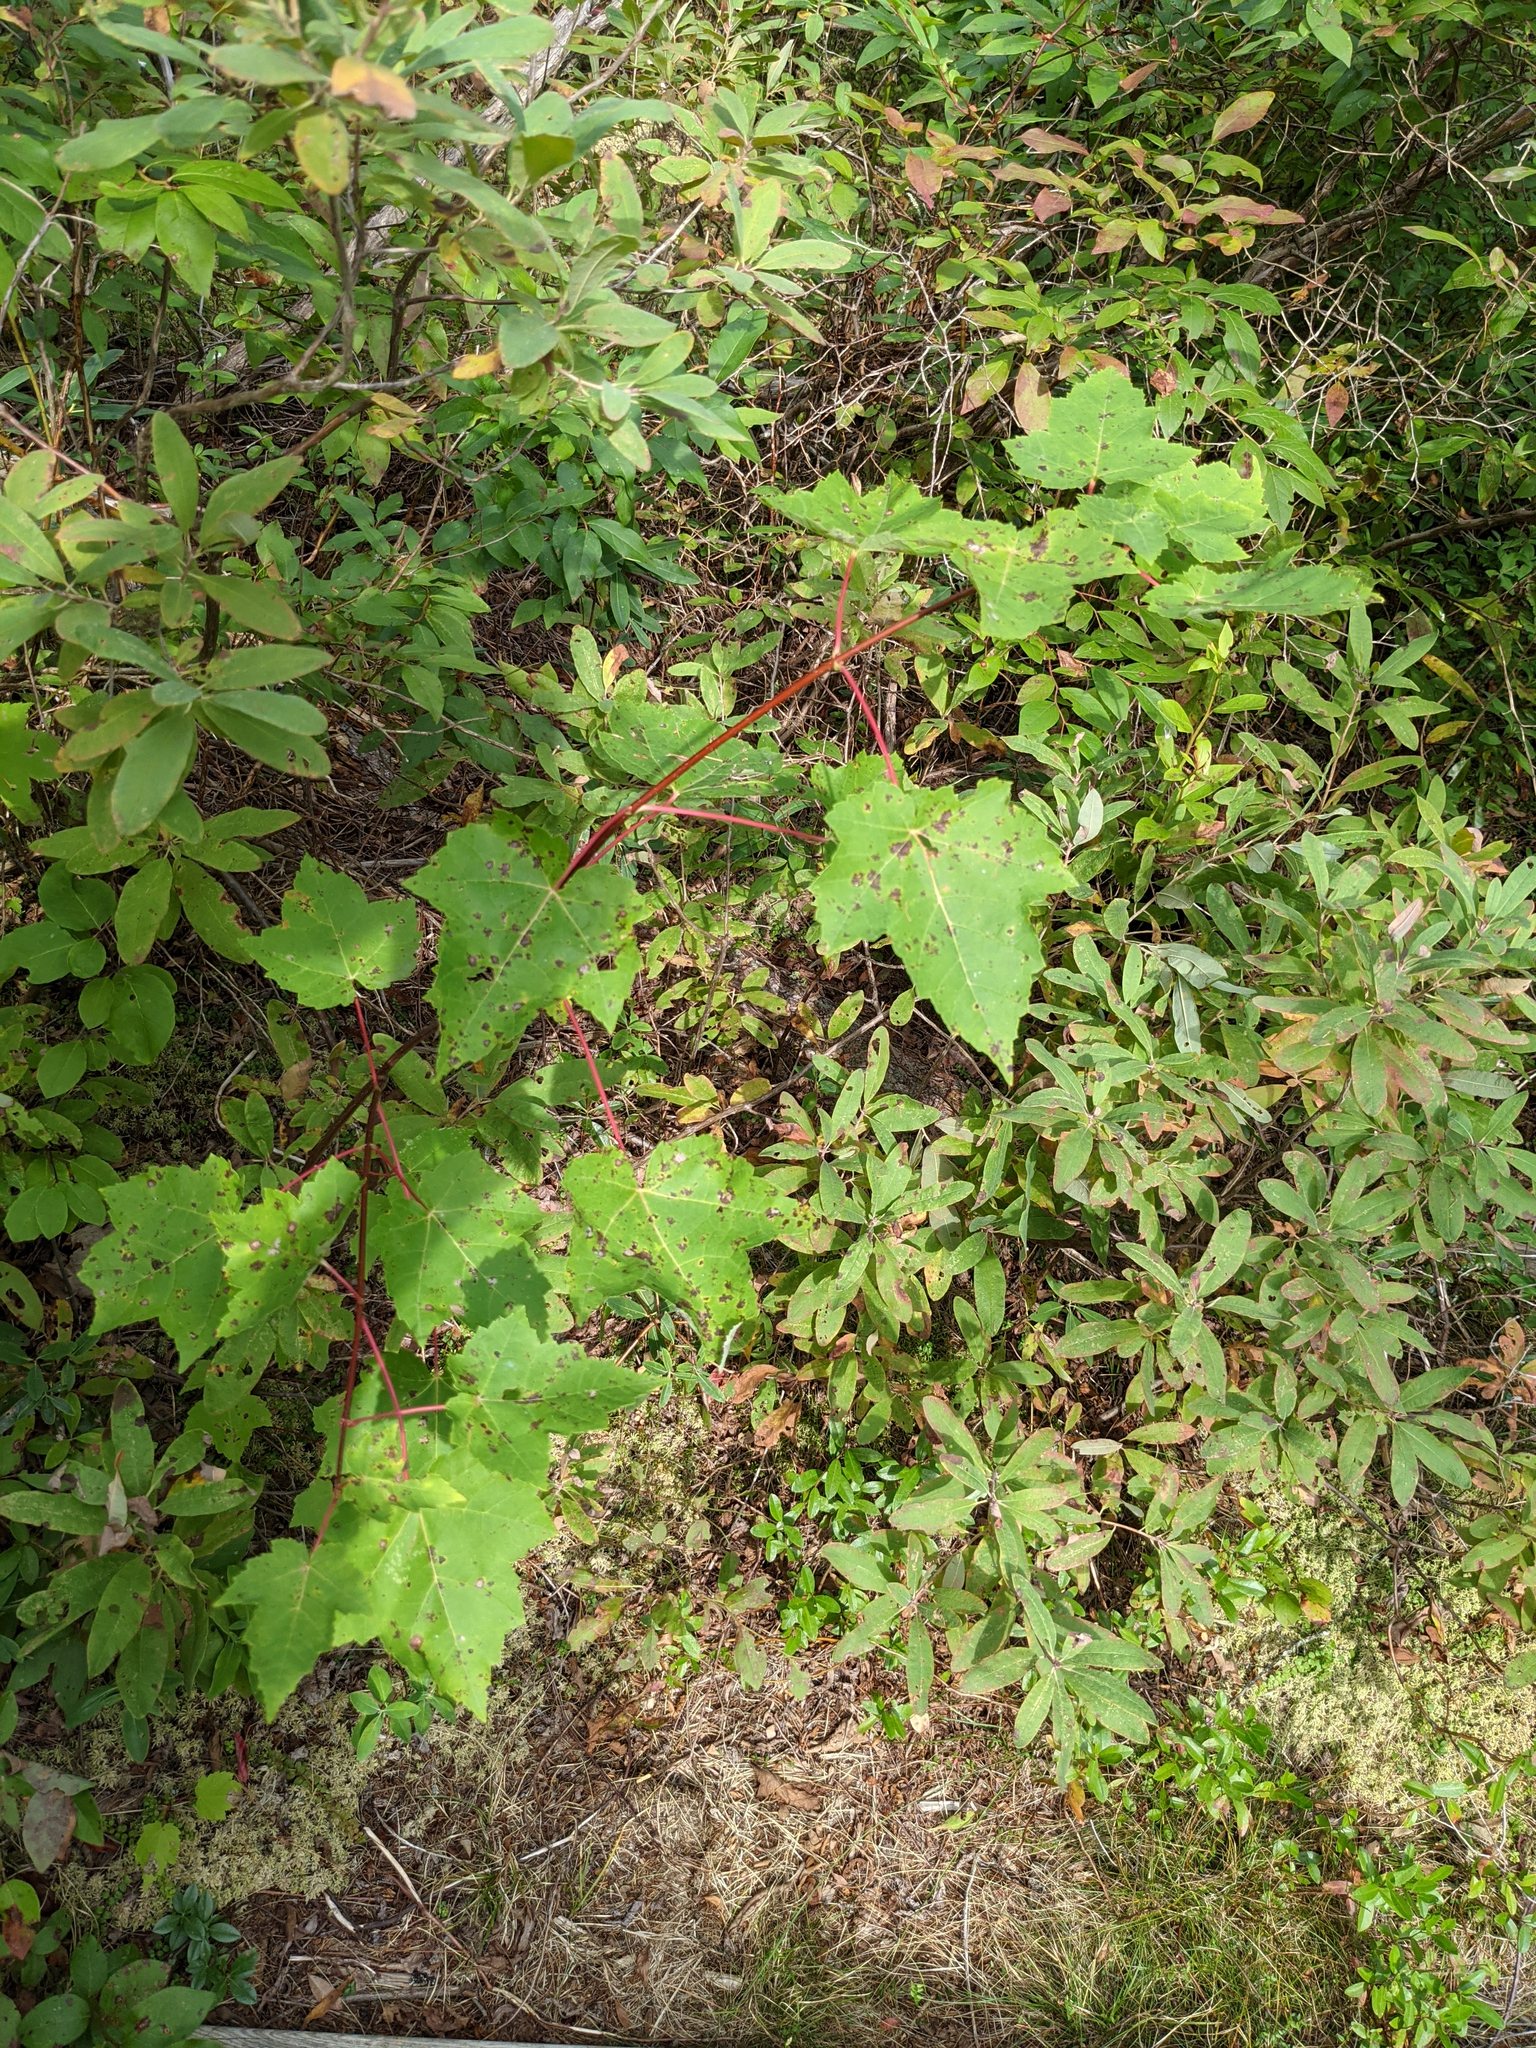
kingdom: Plantae
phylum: Tracheophyta
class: Magnoliopsida
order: Sapindales
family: Sapindaceae
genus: Acer
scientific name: Acer rubrum
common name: Red maple
